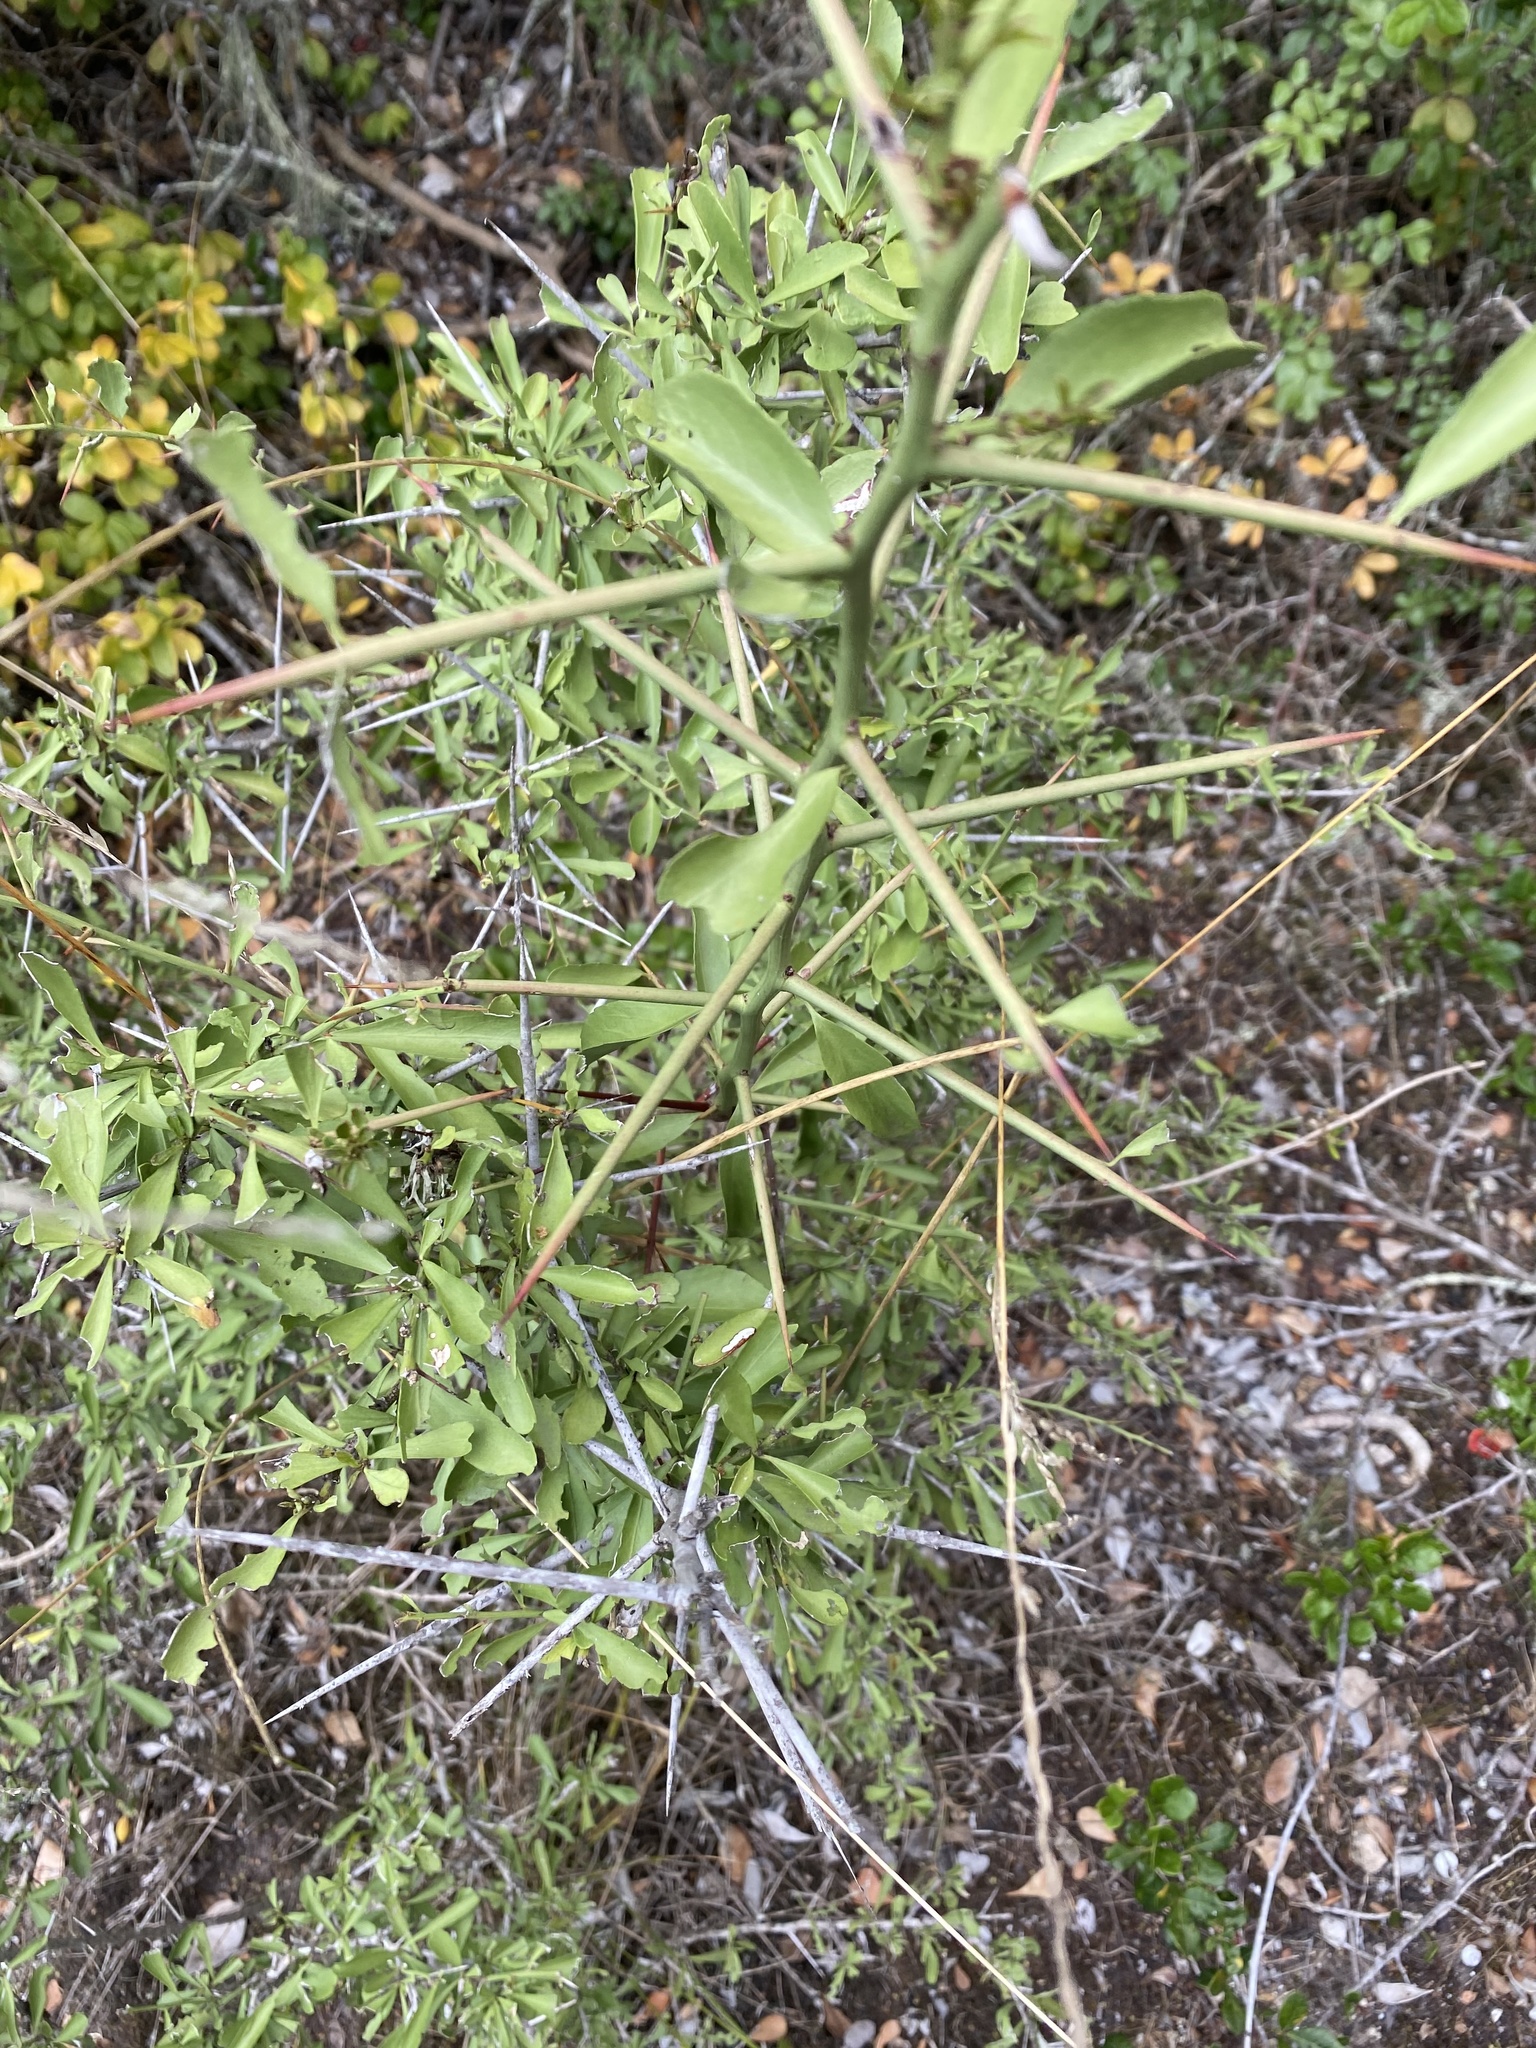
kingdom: Plantae
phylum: Tracheophyta
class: Magnoliopsida
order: Celastrales
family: Celastraceae
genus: Gymnosporia
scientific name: Gymnosporia buxifolia
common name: Common spike-thorn
